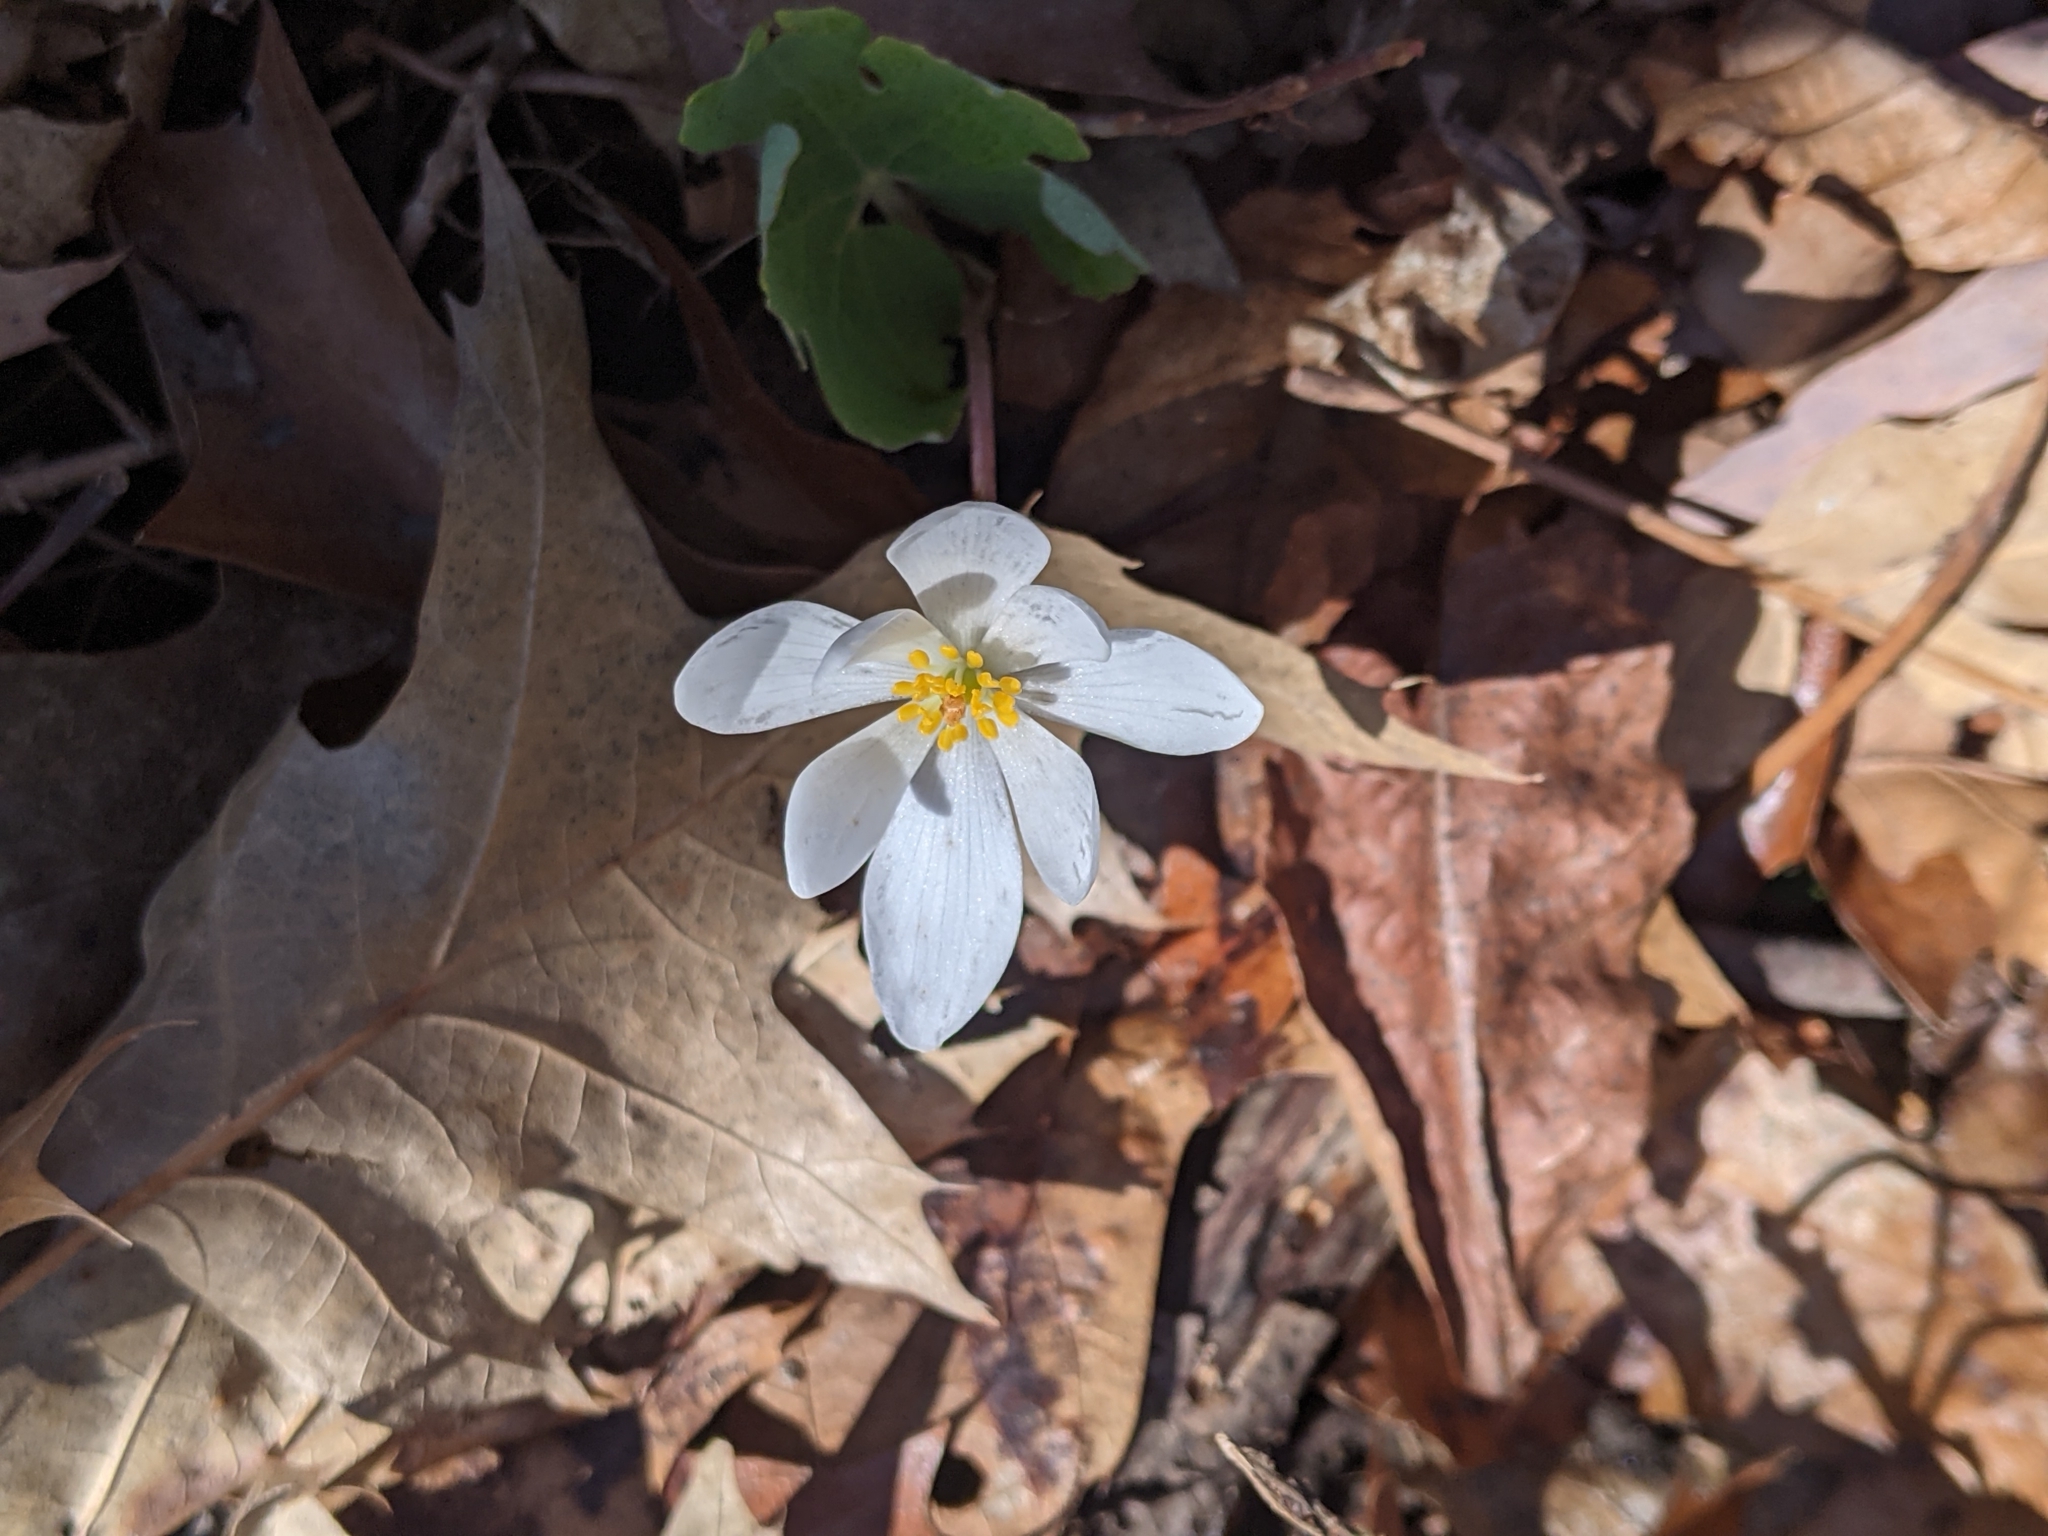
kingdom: Plantae
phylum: Tracheophyta
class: Magnoliopsida
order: Ranunculales
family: Papaveraceae
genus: Sanguinaria
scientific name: Sanguinaria canadensis
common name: Bloodroot
